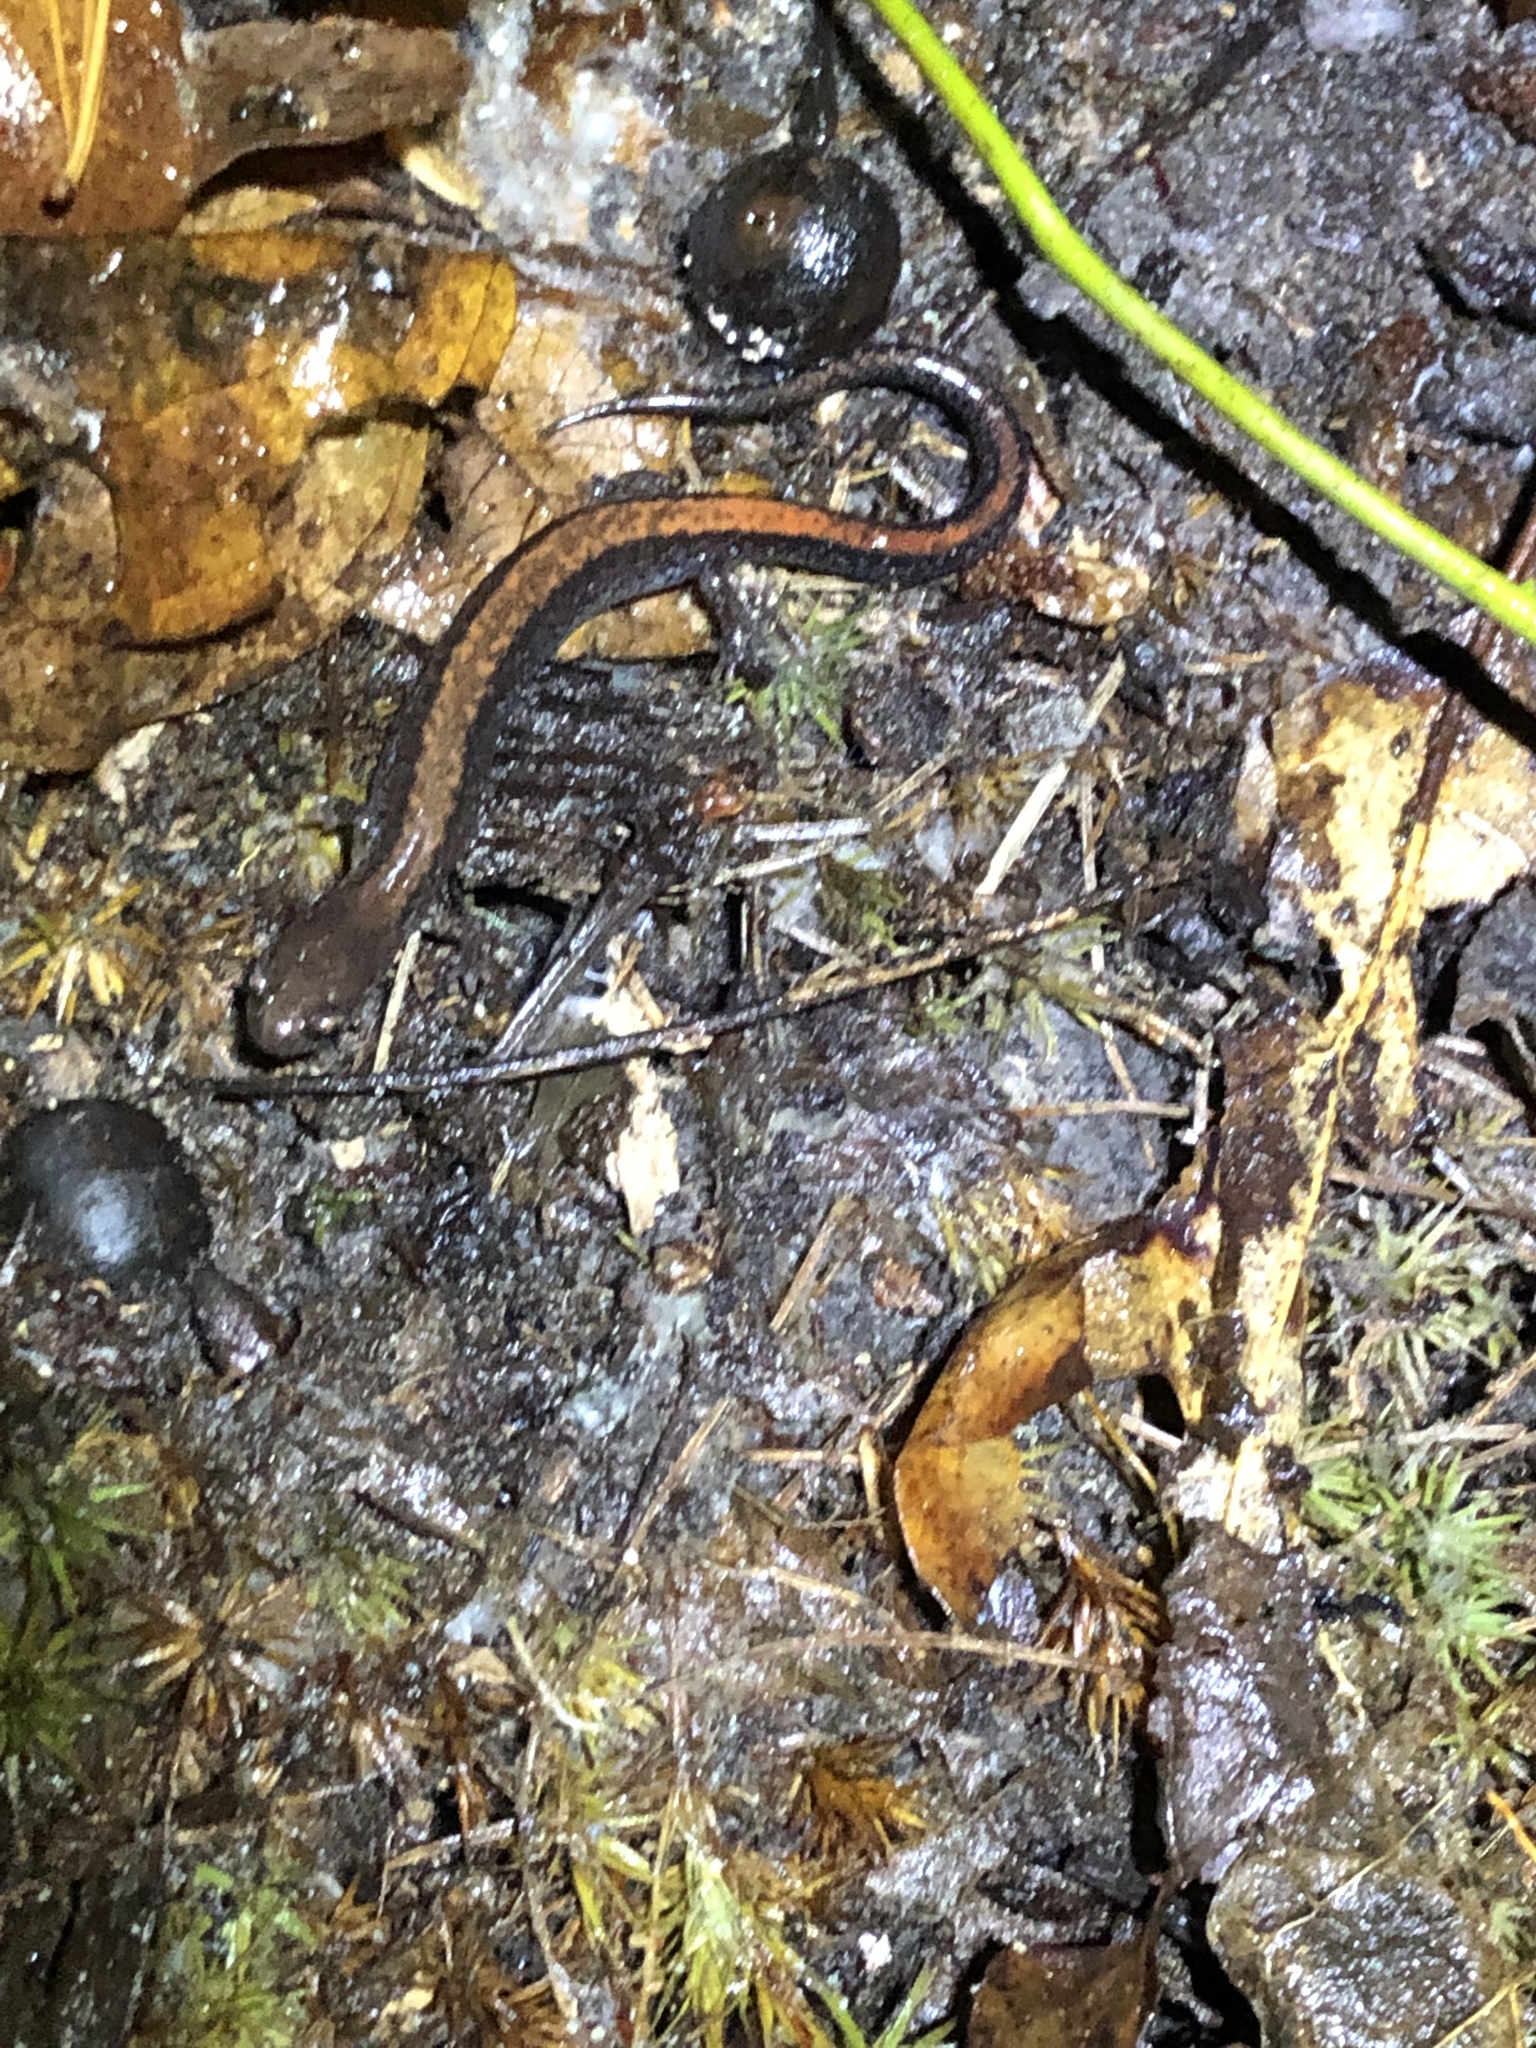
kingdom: Animalia
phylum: Chordata
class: Amphibia
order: Caudata
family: Plethodontidae
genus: Plethodon
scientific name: Plethodon cinereus
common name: Redback salamander
